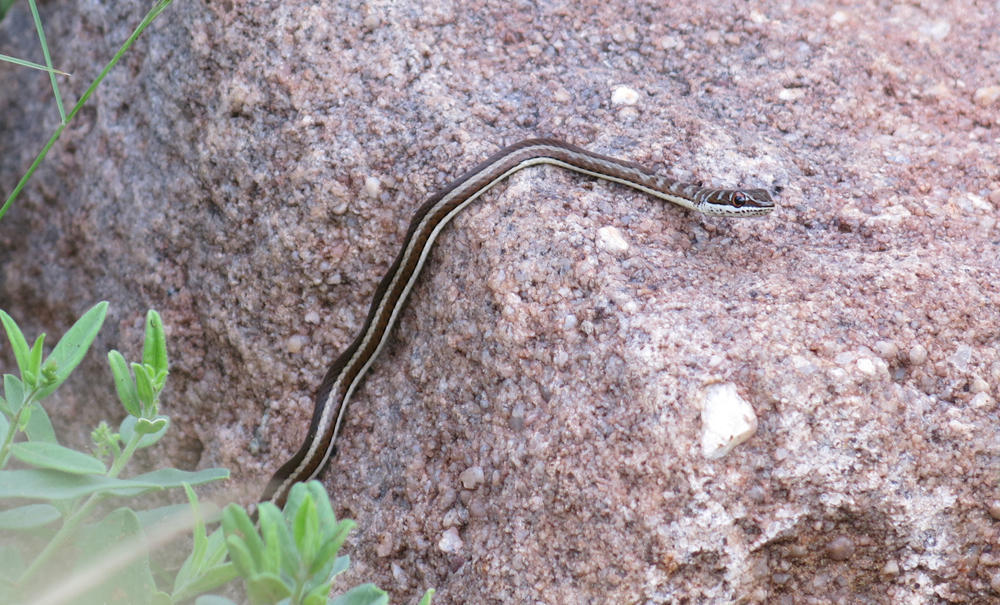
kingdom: Animalia
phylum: Chordata
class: Squamata
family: Psammophiidae
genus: Psammophis
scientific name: Psammophis subtaeniatus
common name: Stripe-bellied sand snake
